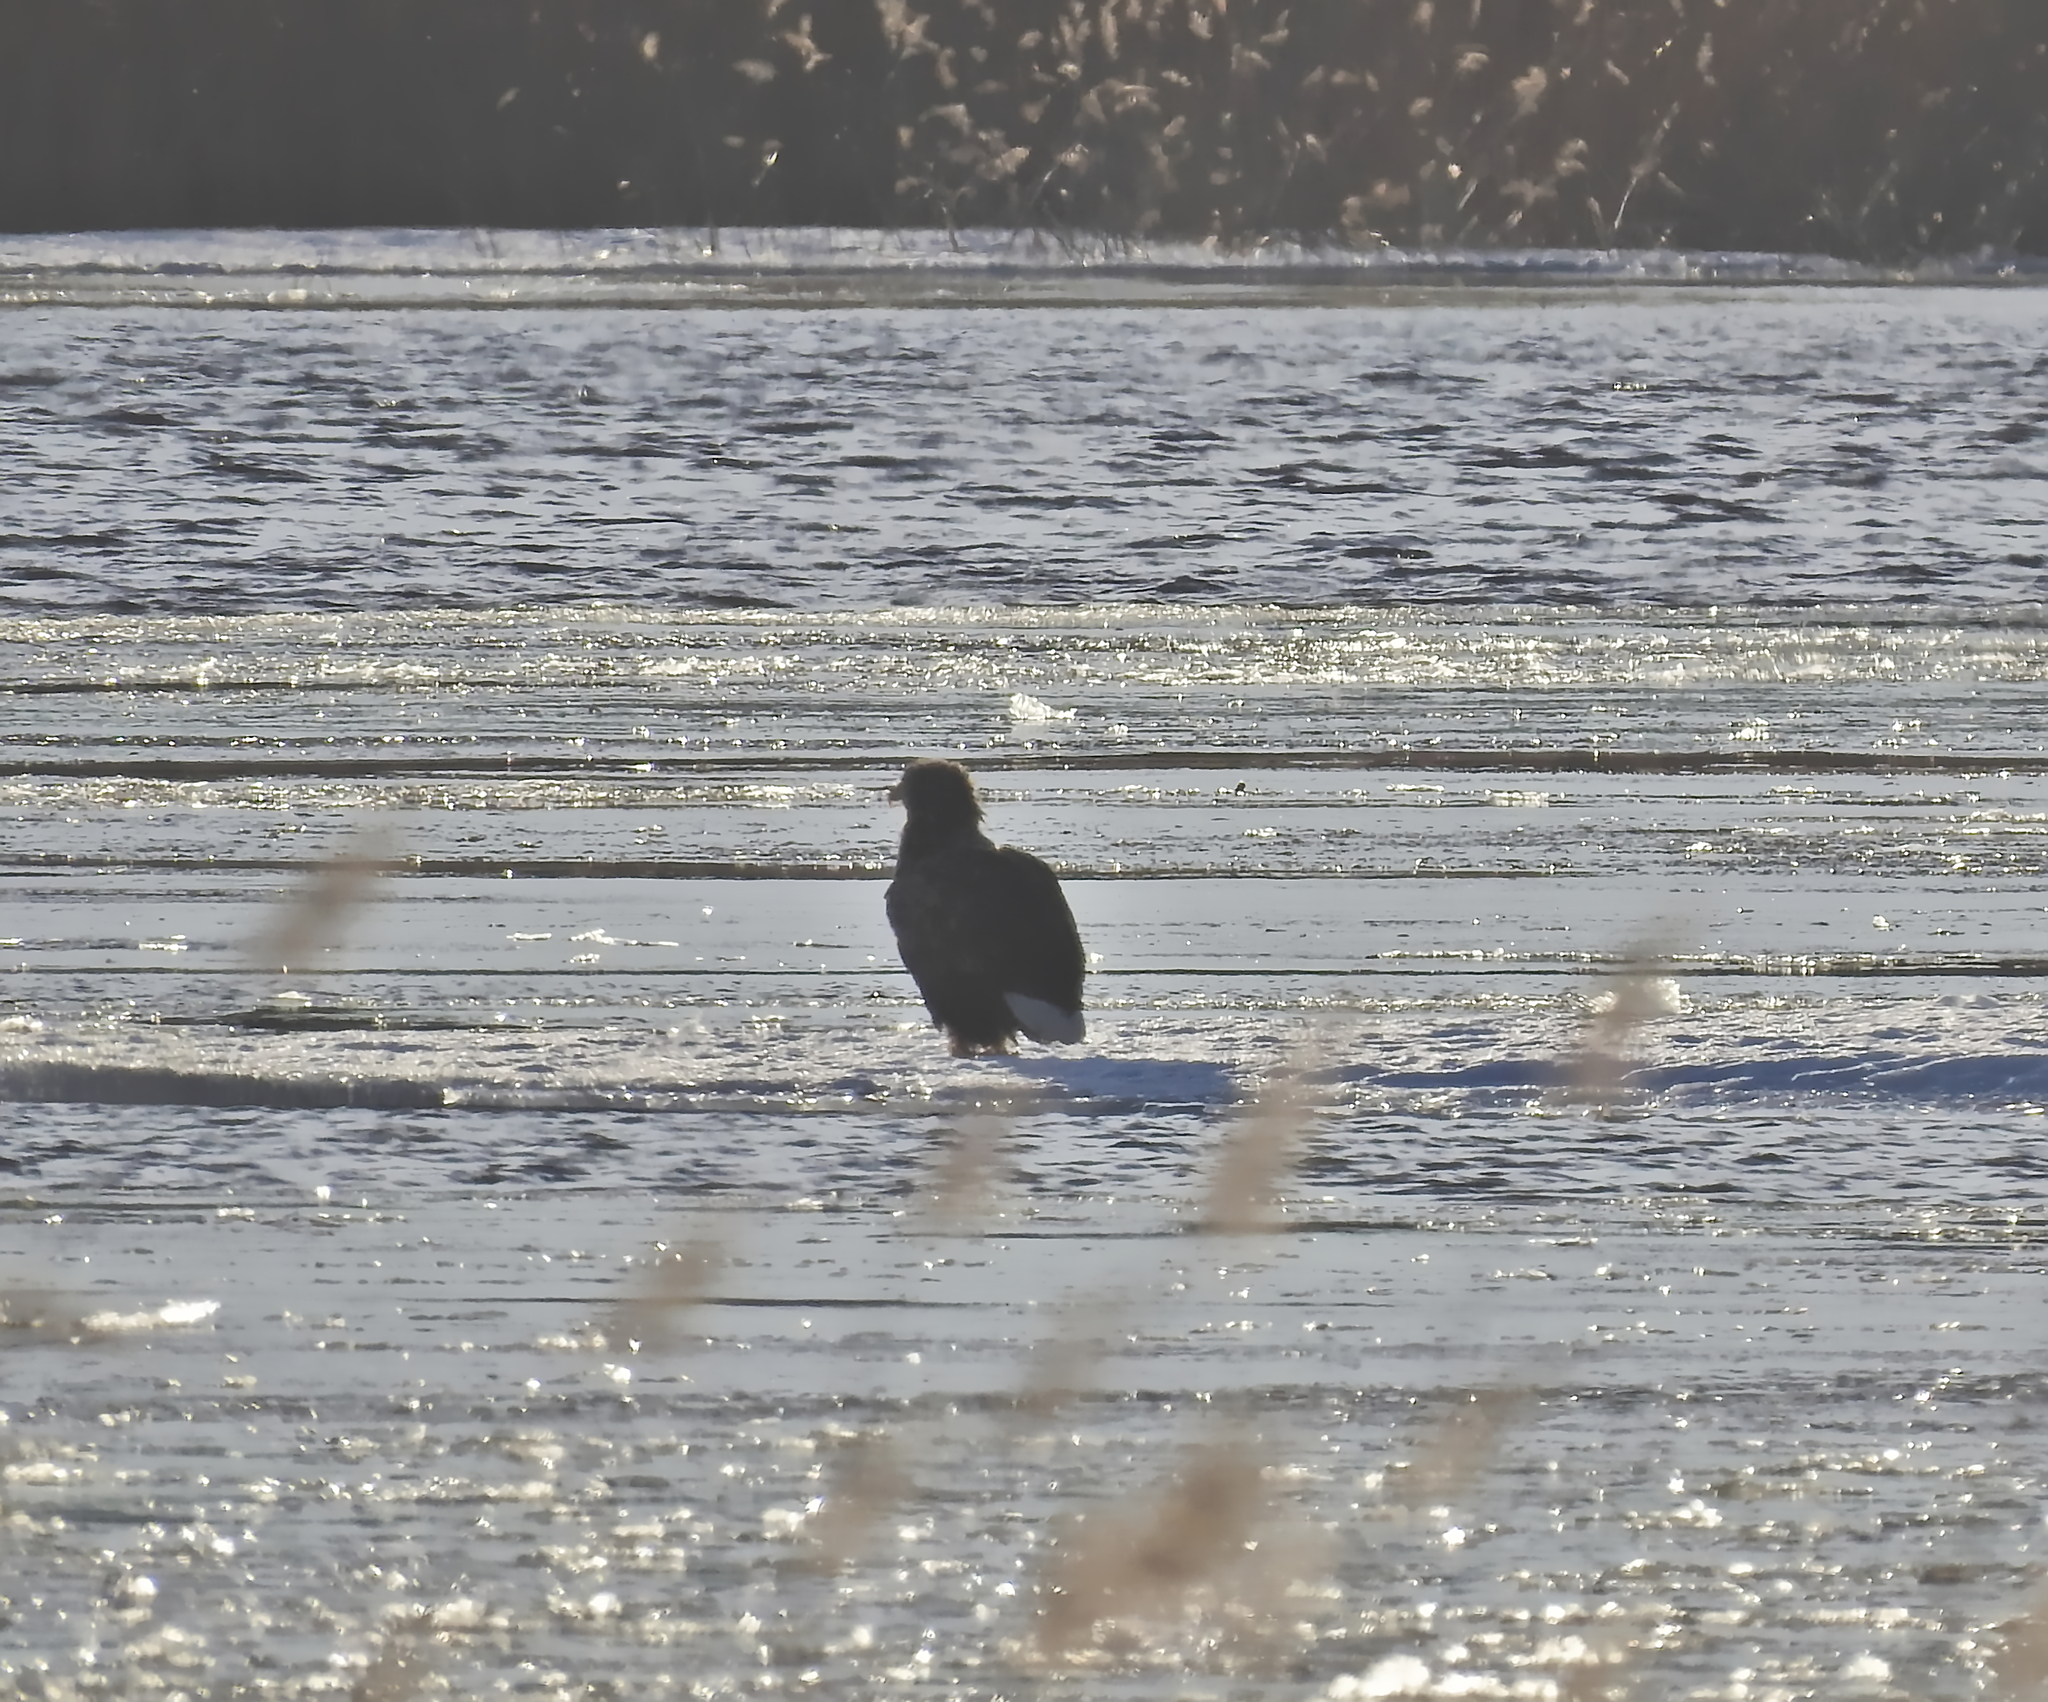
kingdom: Animalia
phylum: Chordata
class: Aves
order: Accipitriformes
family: Accipitridae
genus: Haliaeetus
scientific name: Haliaeetus albicilla
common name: White-tailed eagle
